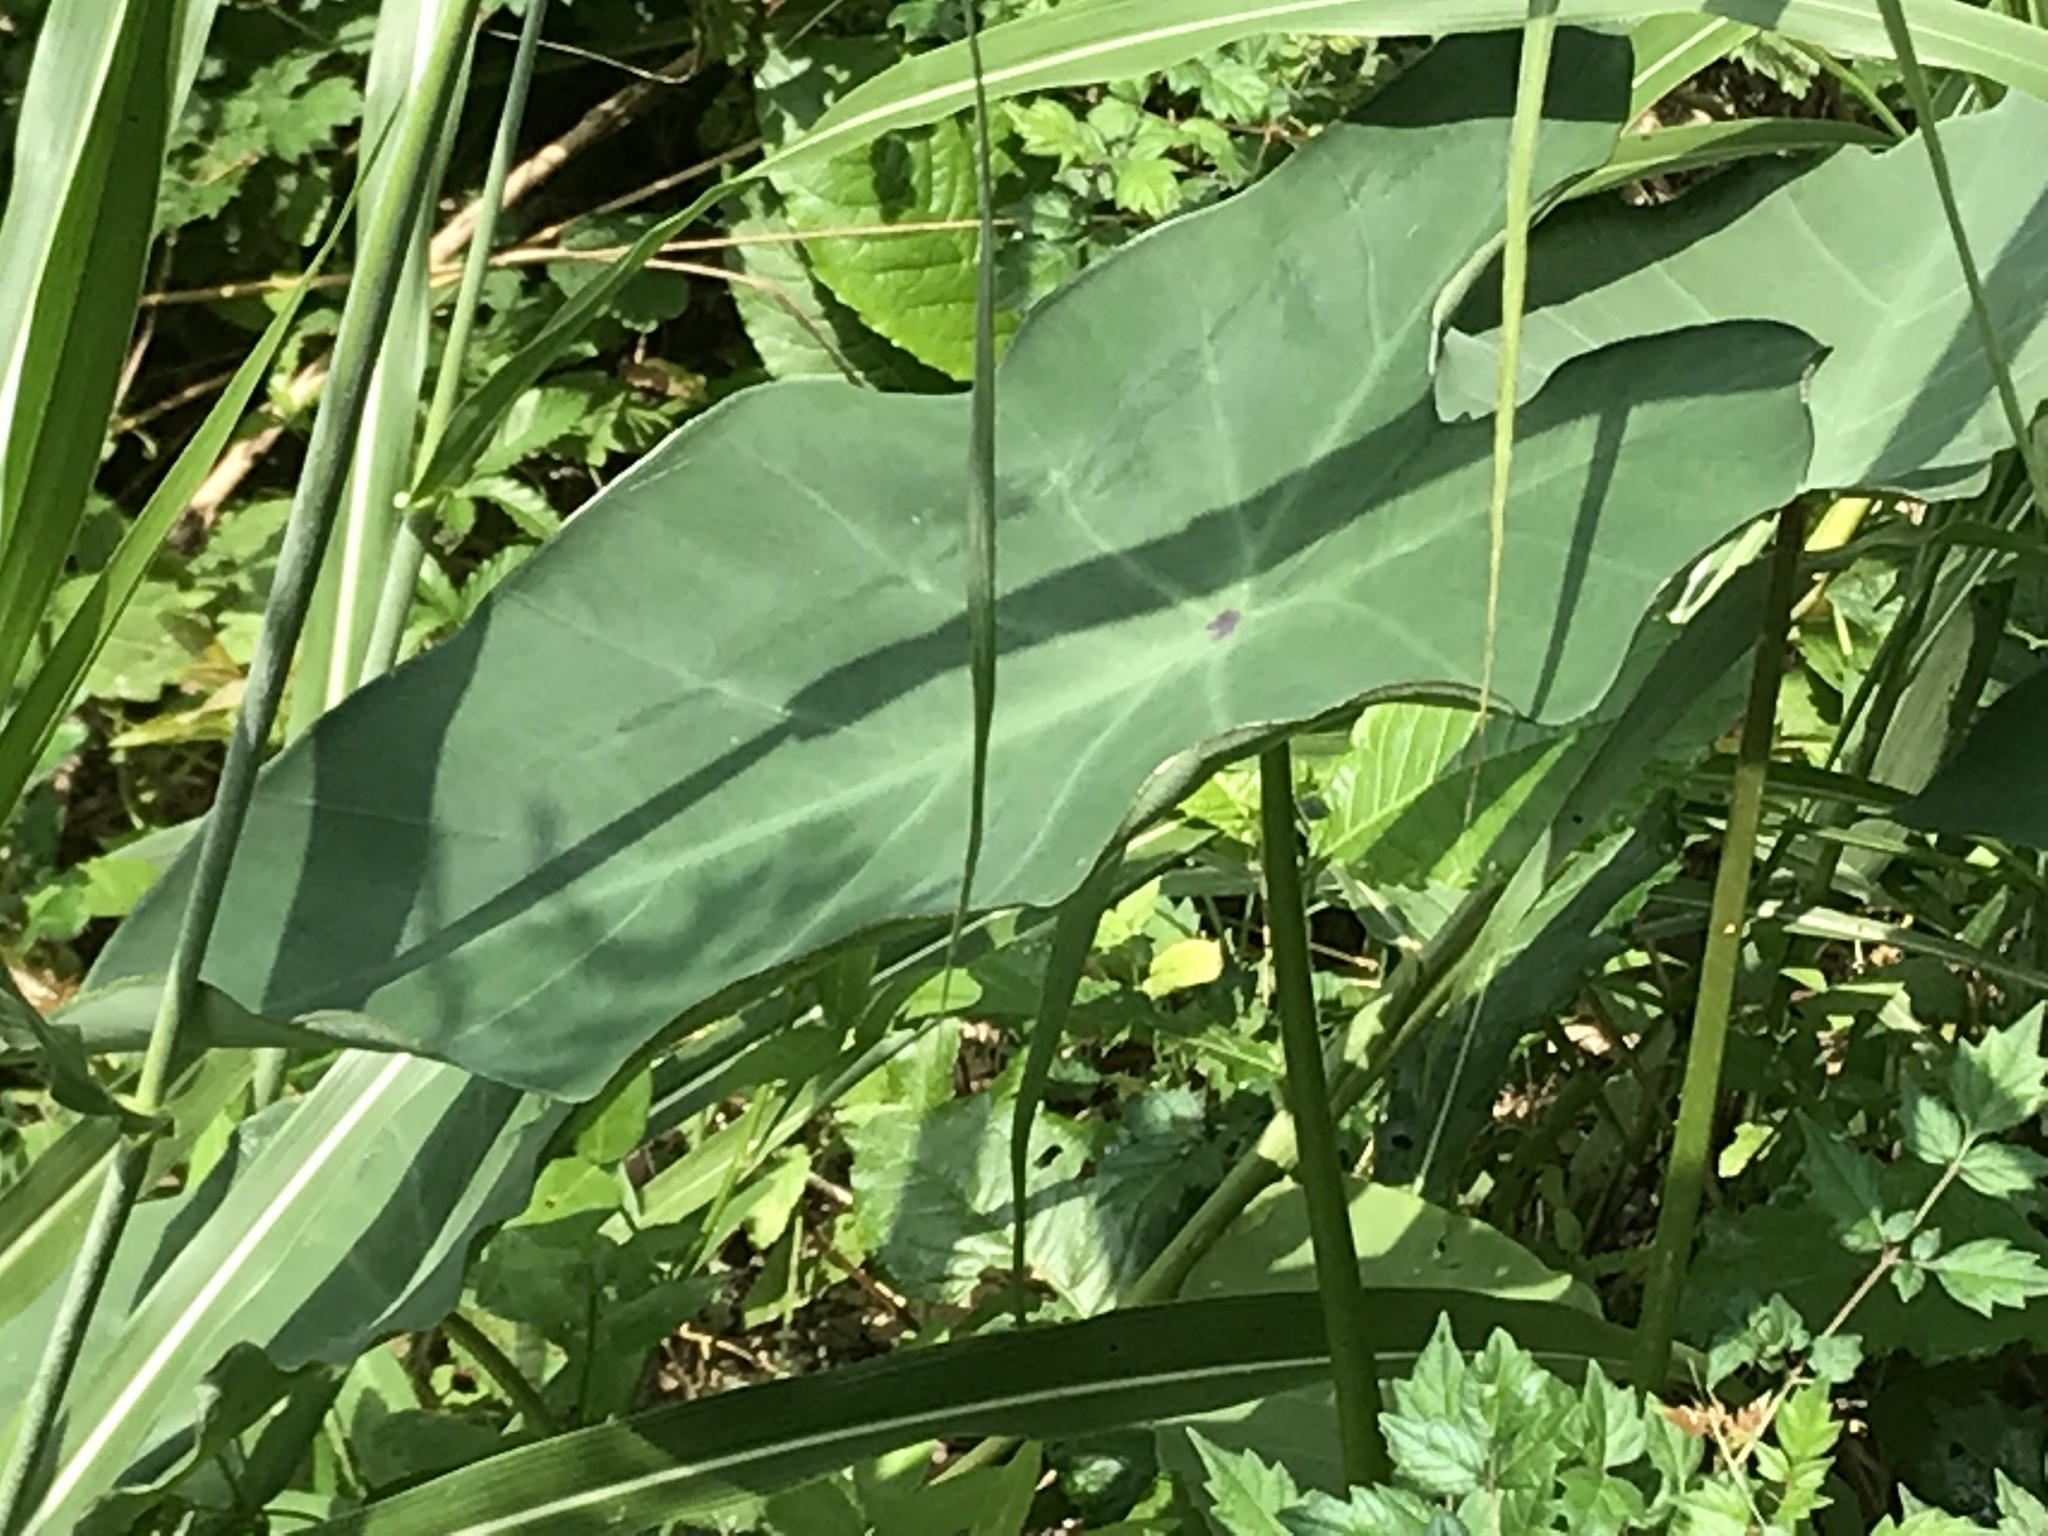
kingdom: Plantae
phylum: Tracheophyta
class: Liliopsida
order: Alismatales
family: Araceae
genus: Colocasia
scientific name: Colocasia esculenta
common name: Taro
